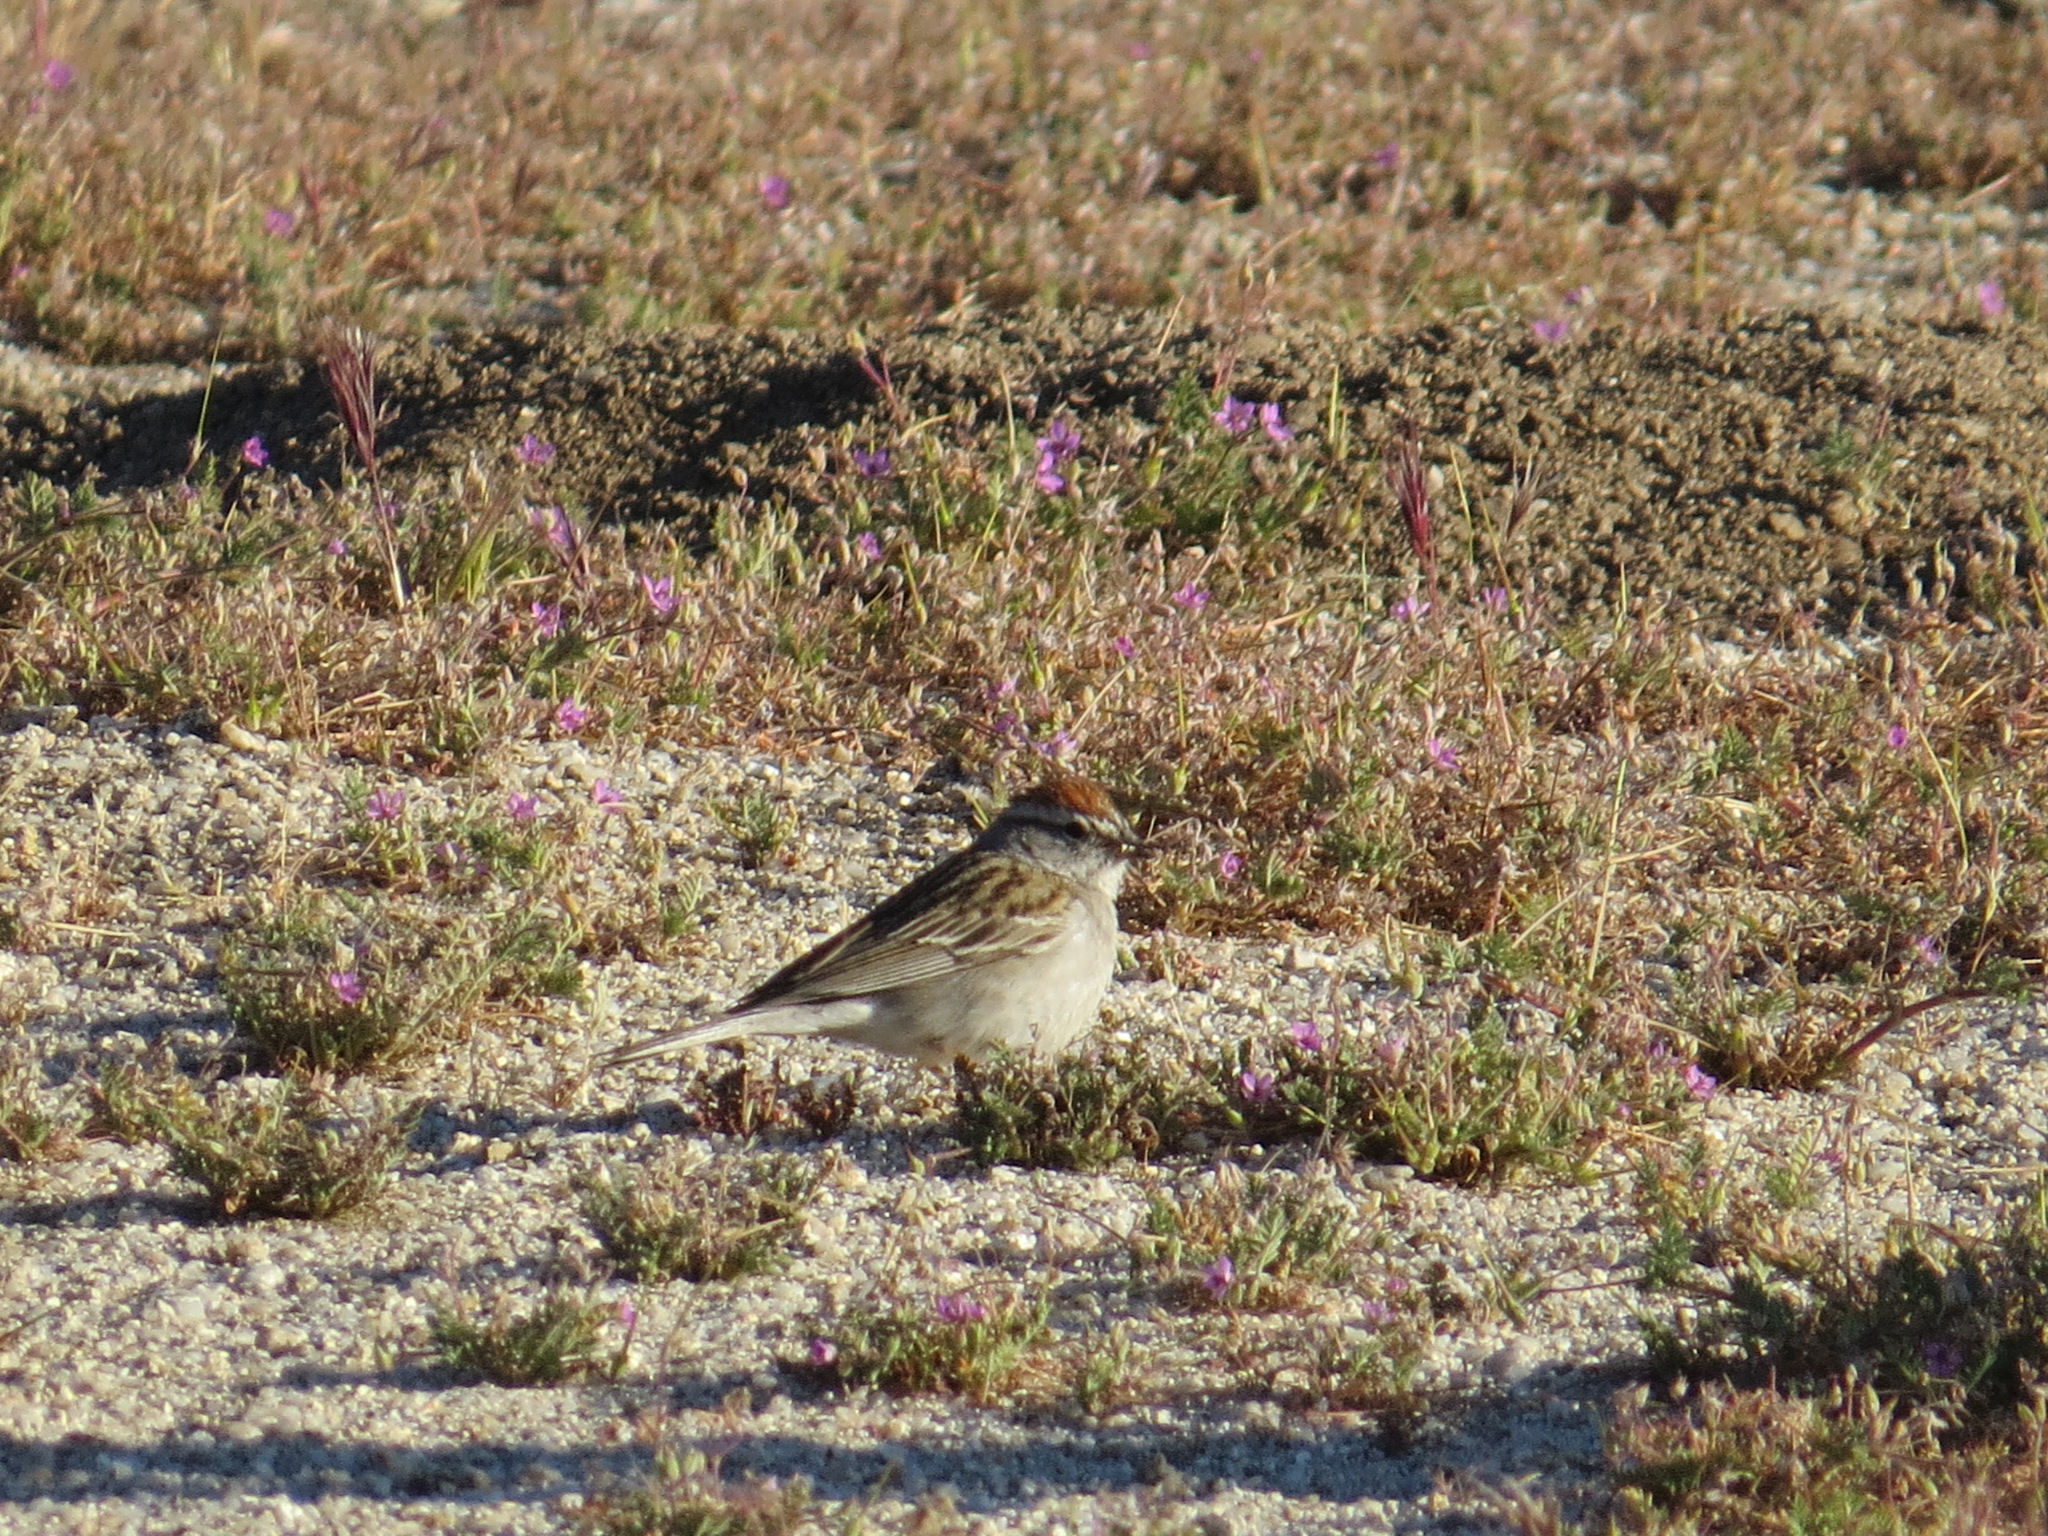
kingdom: Animalia
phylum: Chordata
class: Aves
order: Passeriformes
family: Passerellidae
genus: Spizella
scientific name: Spizella passerina
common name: Chipping sparrow
